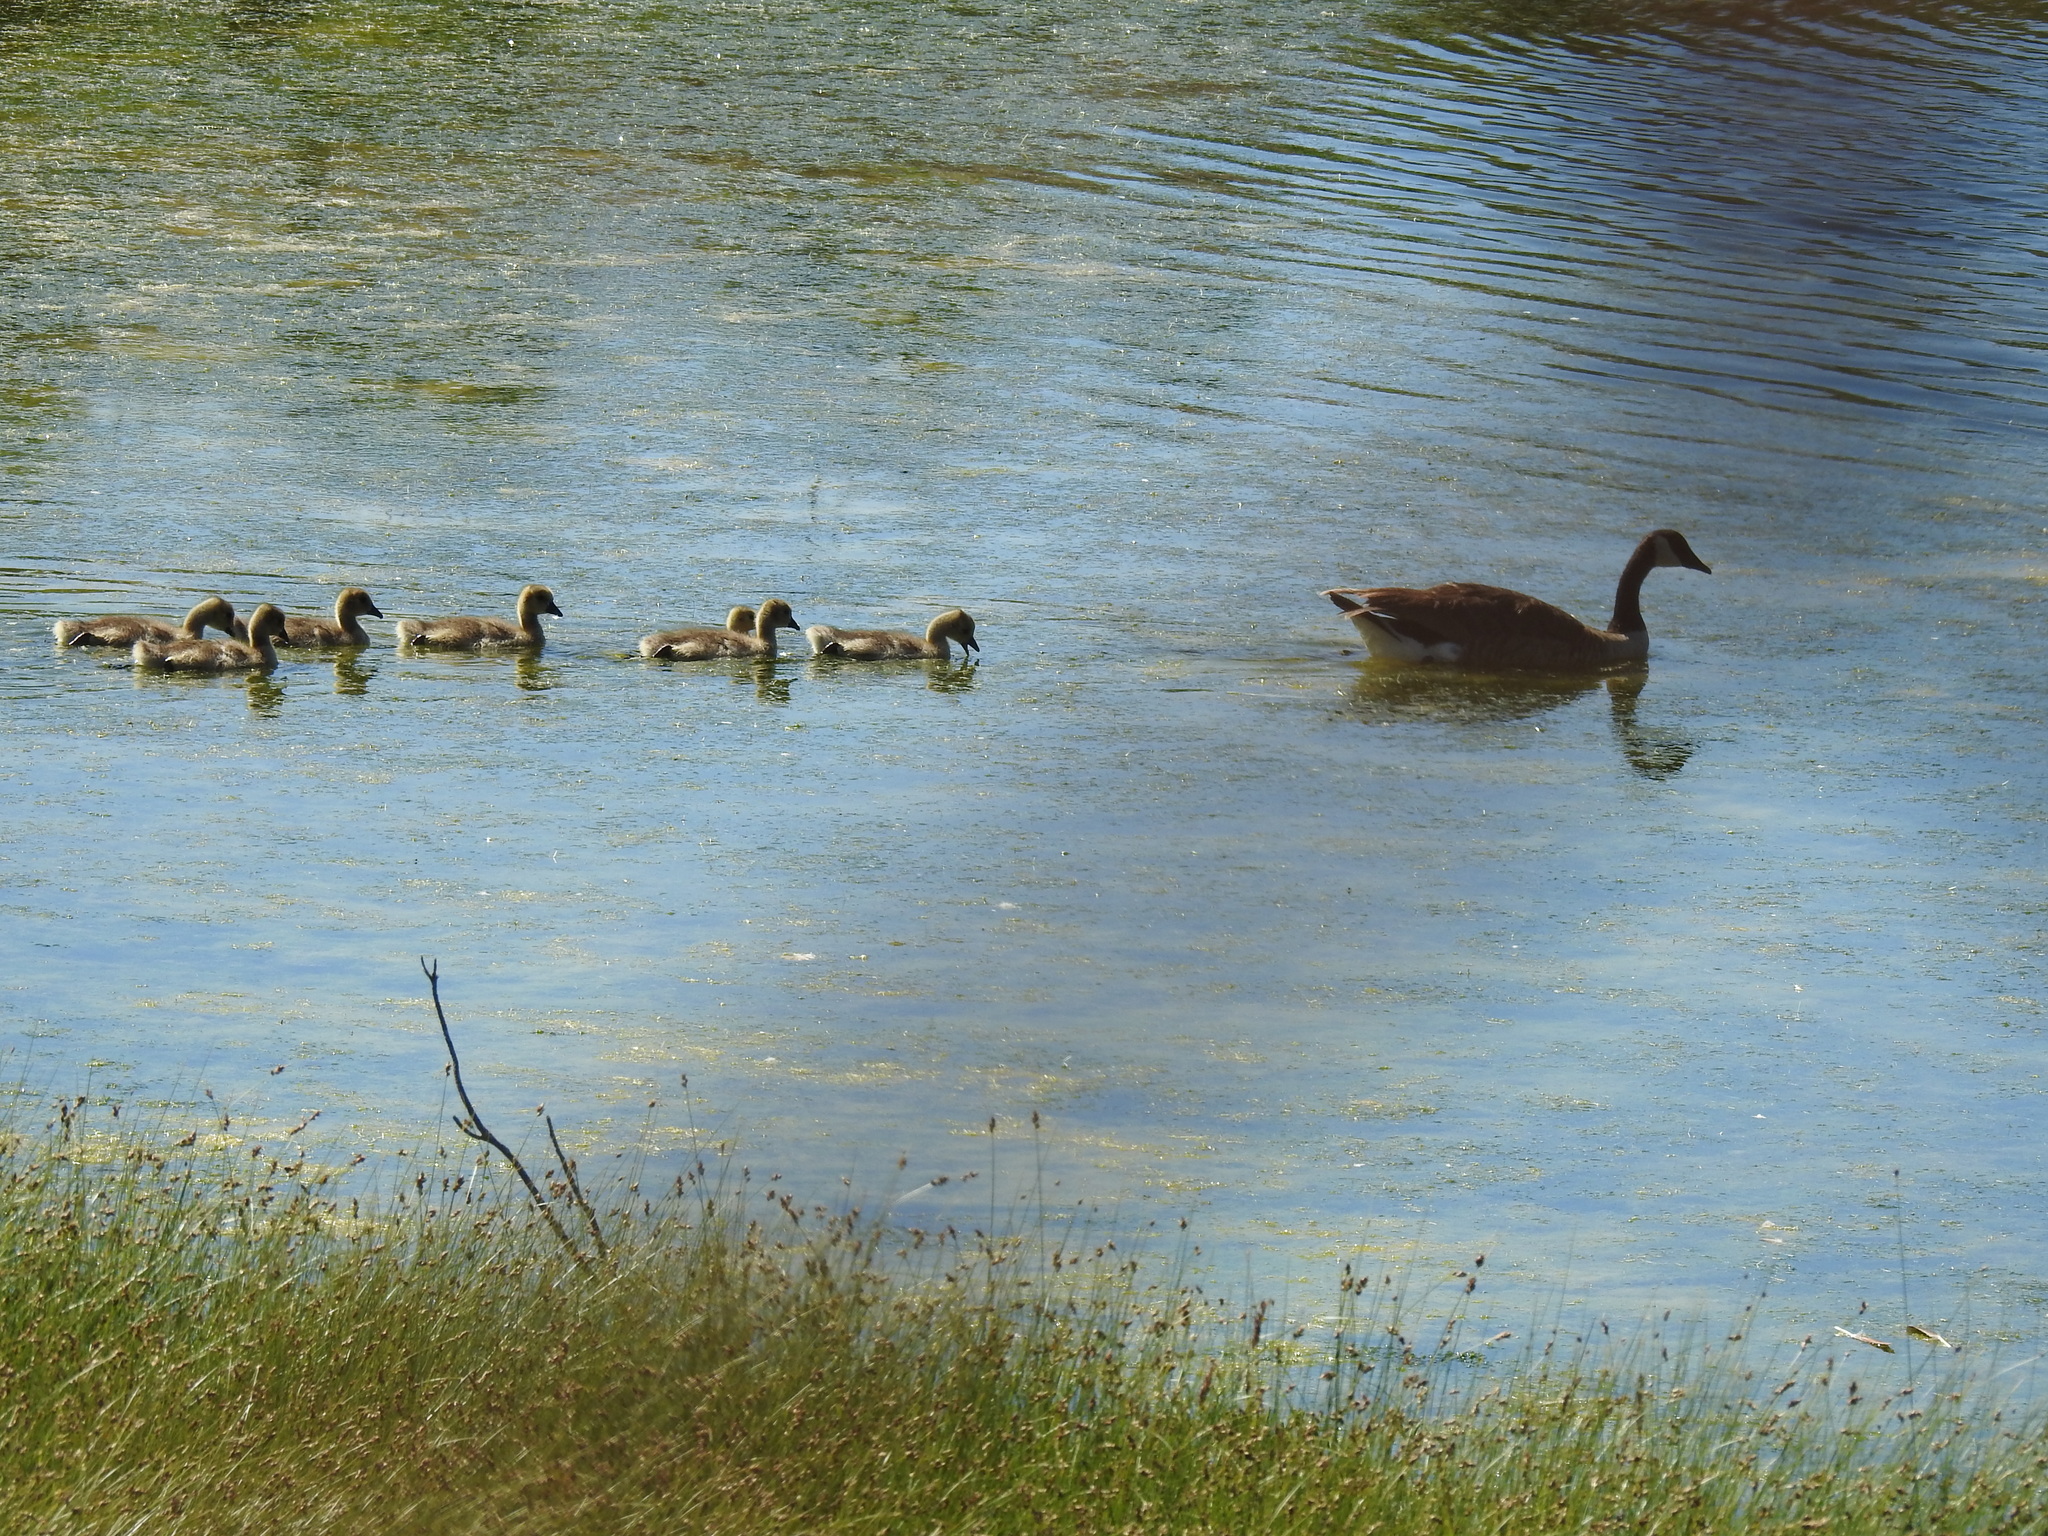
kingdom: Animalia
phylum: Chordata
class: Aves
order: Anseriformes
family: Anatidae
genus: Branta
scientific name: Branta canadensis
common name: Canada goose
